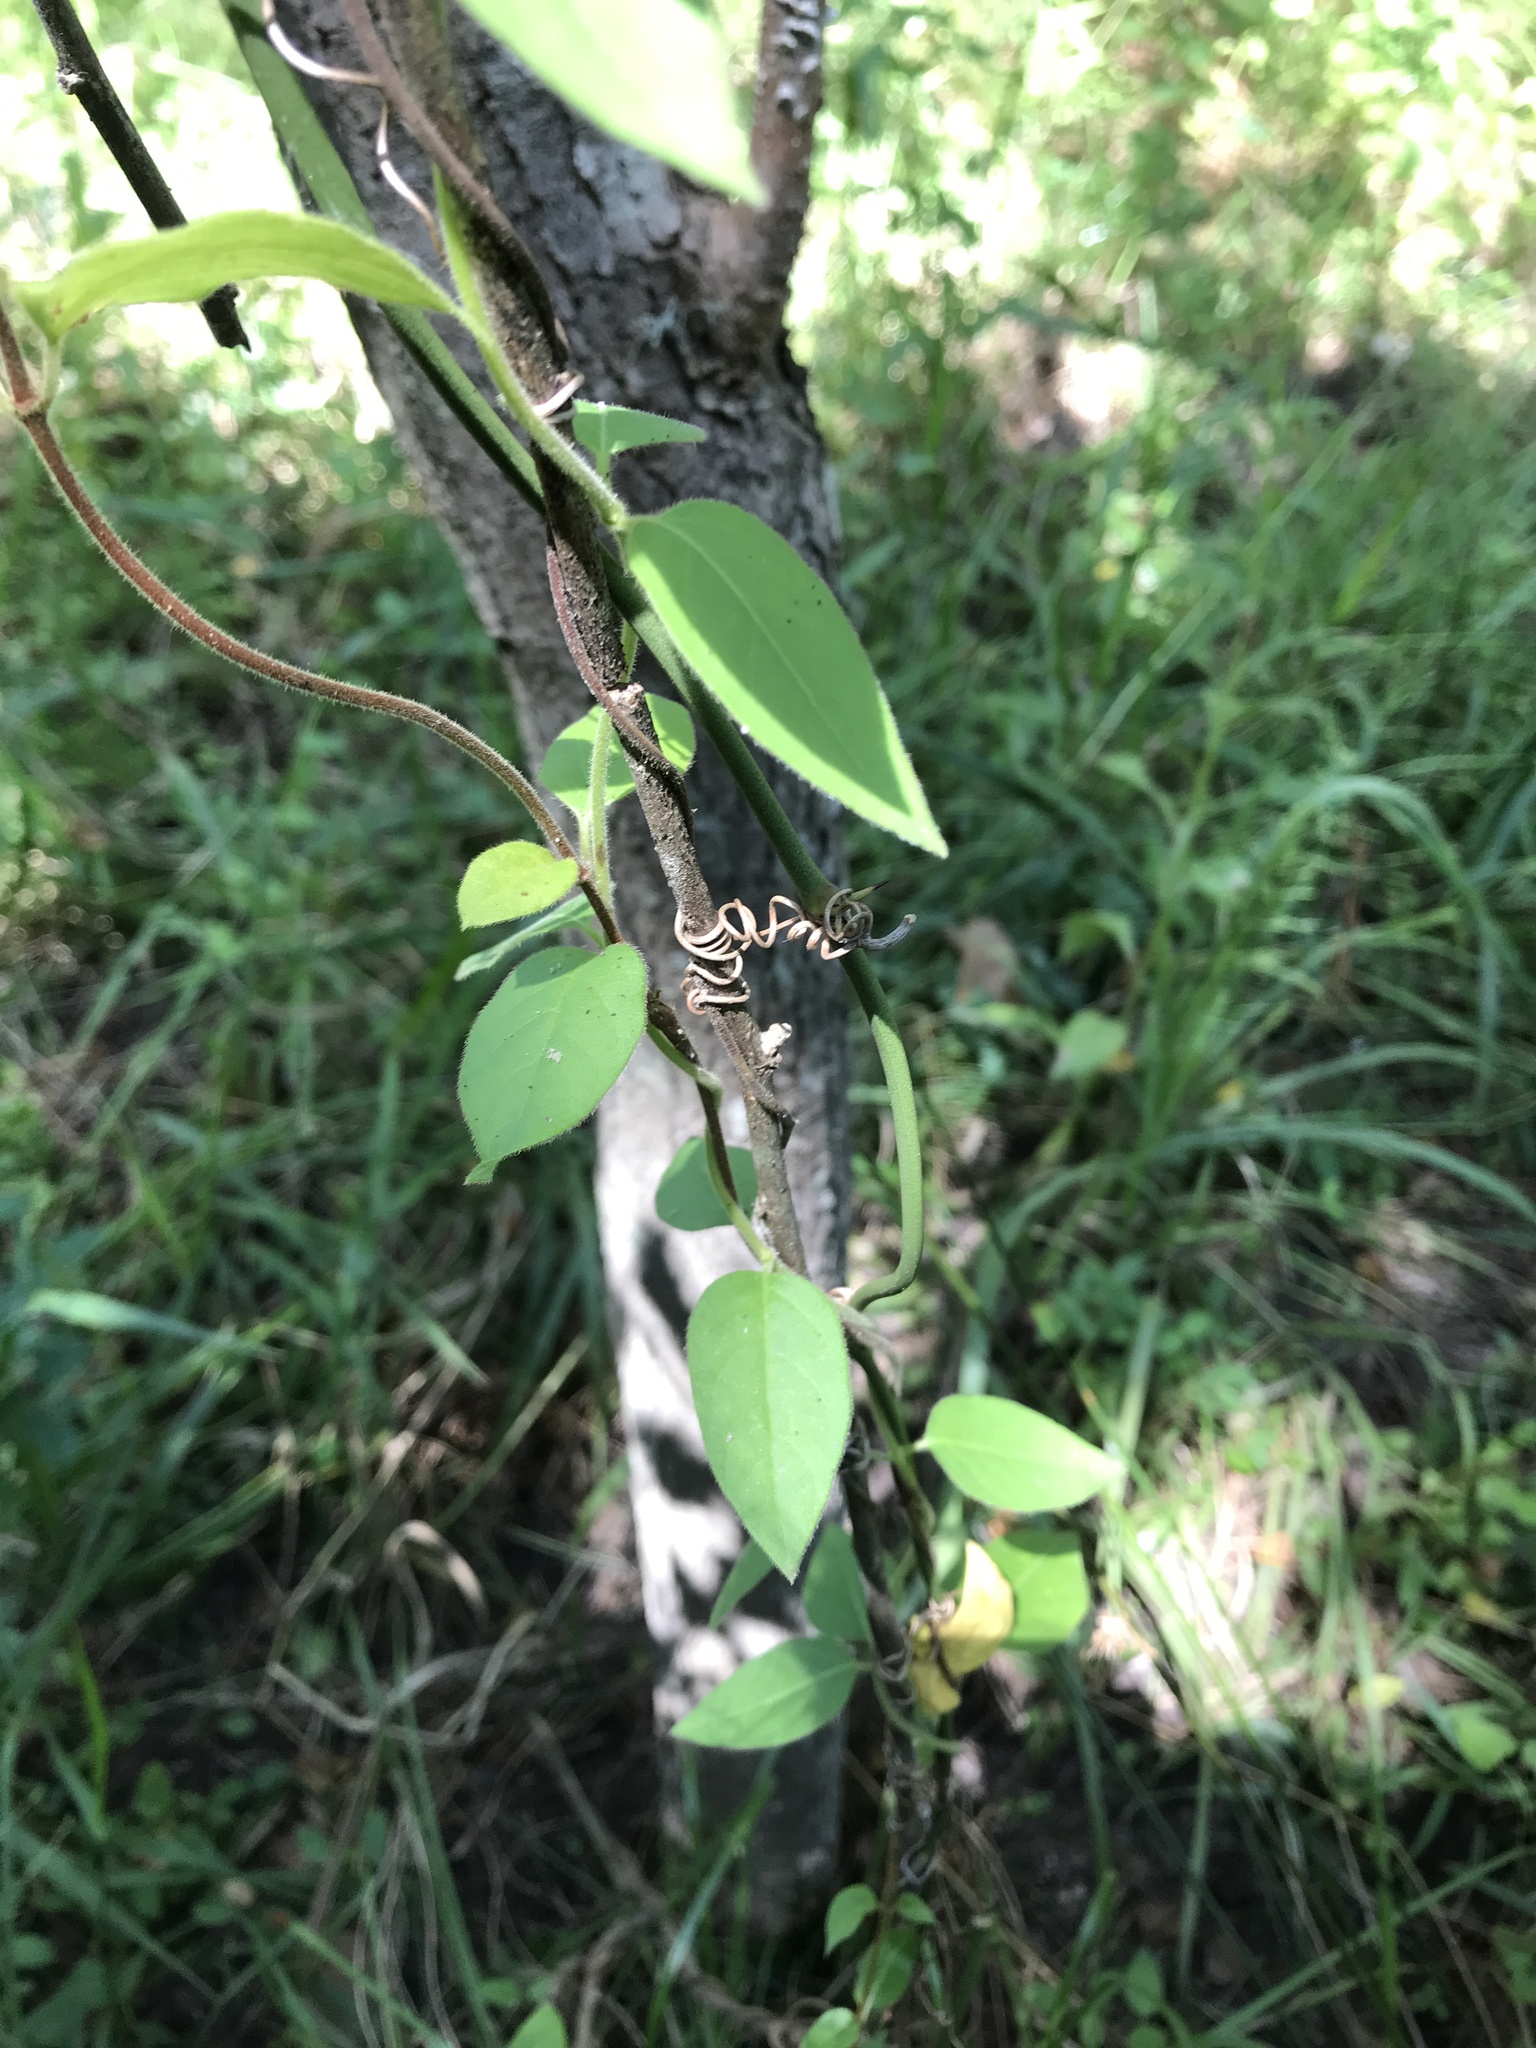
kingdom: Plantae
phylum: Tracheophyta
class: Magnoliopsida
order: Dipsacales
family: Caprifoliaceae
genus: Lonicera
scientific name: Lonicera japonica
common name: Japanese honeysuckle
